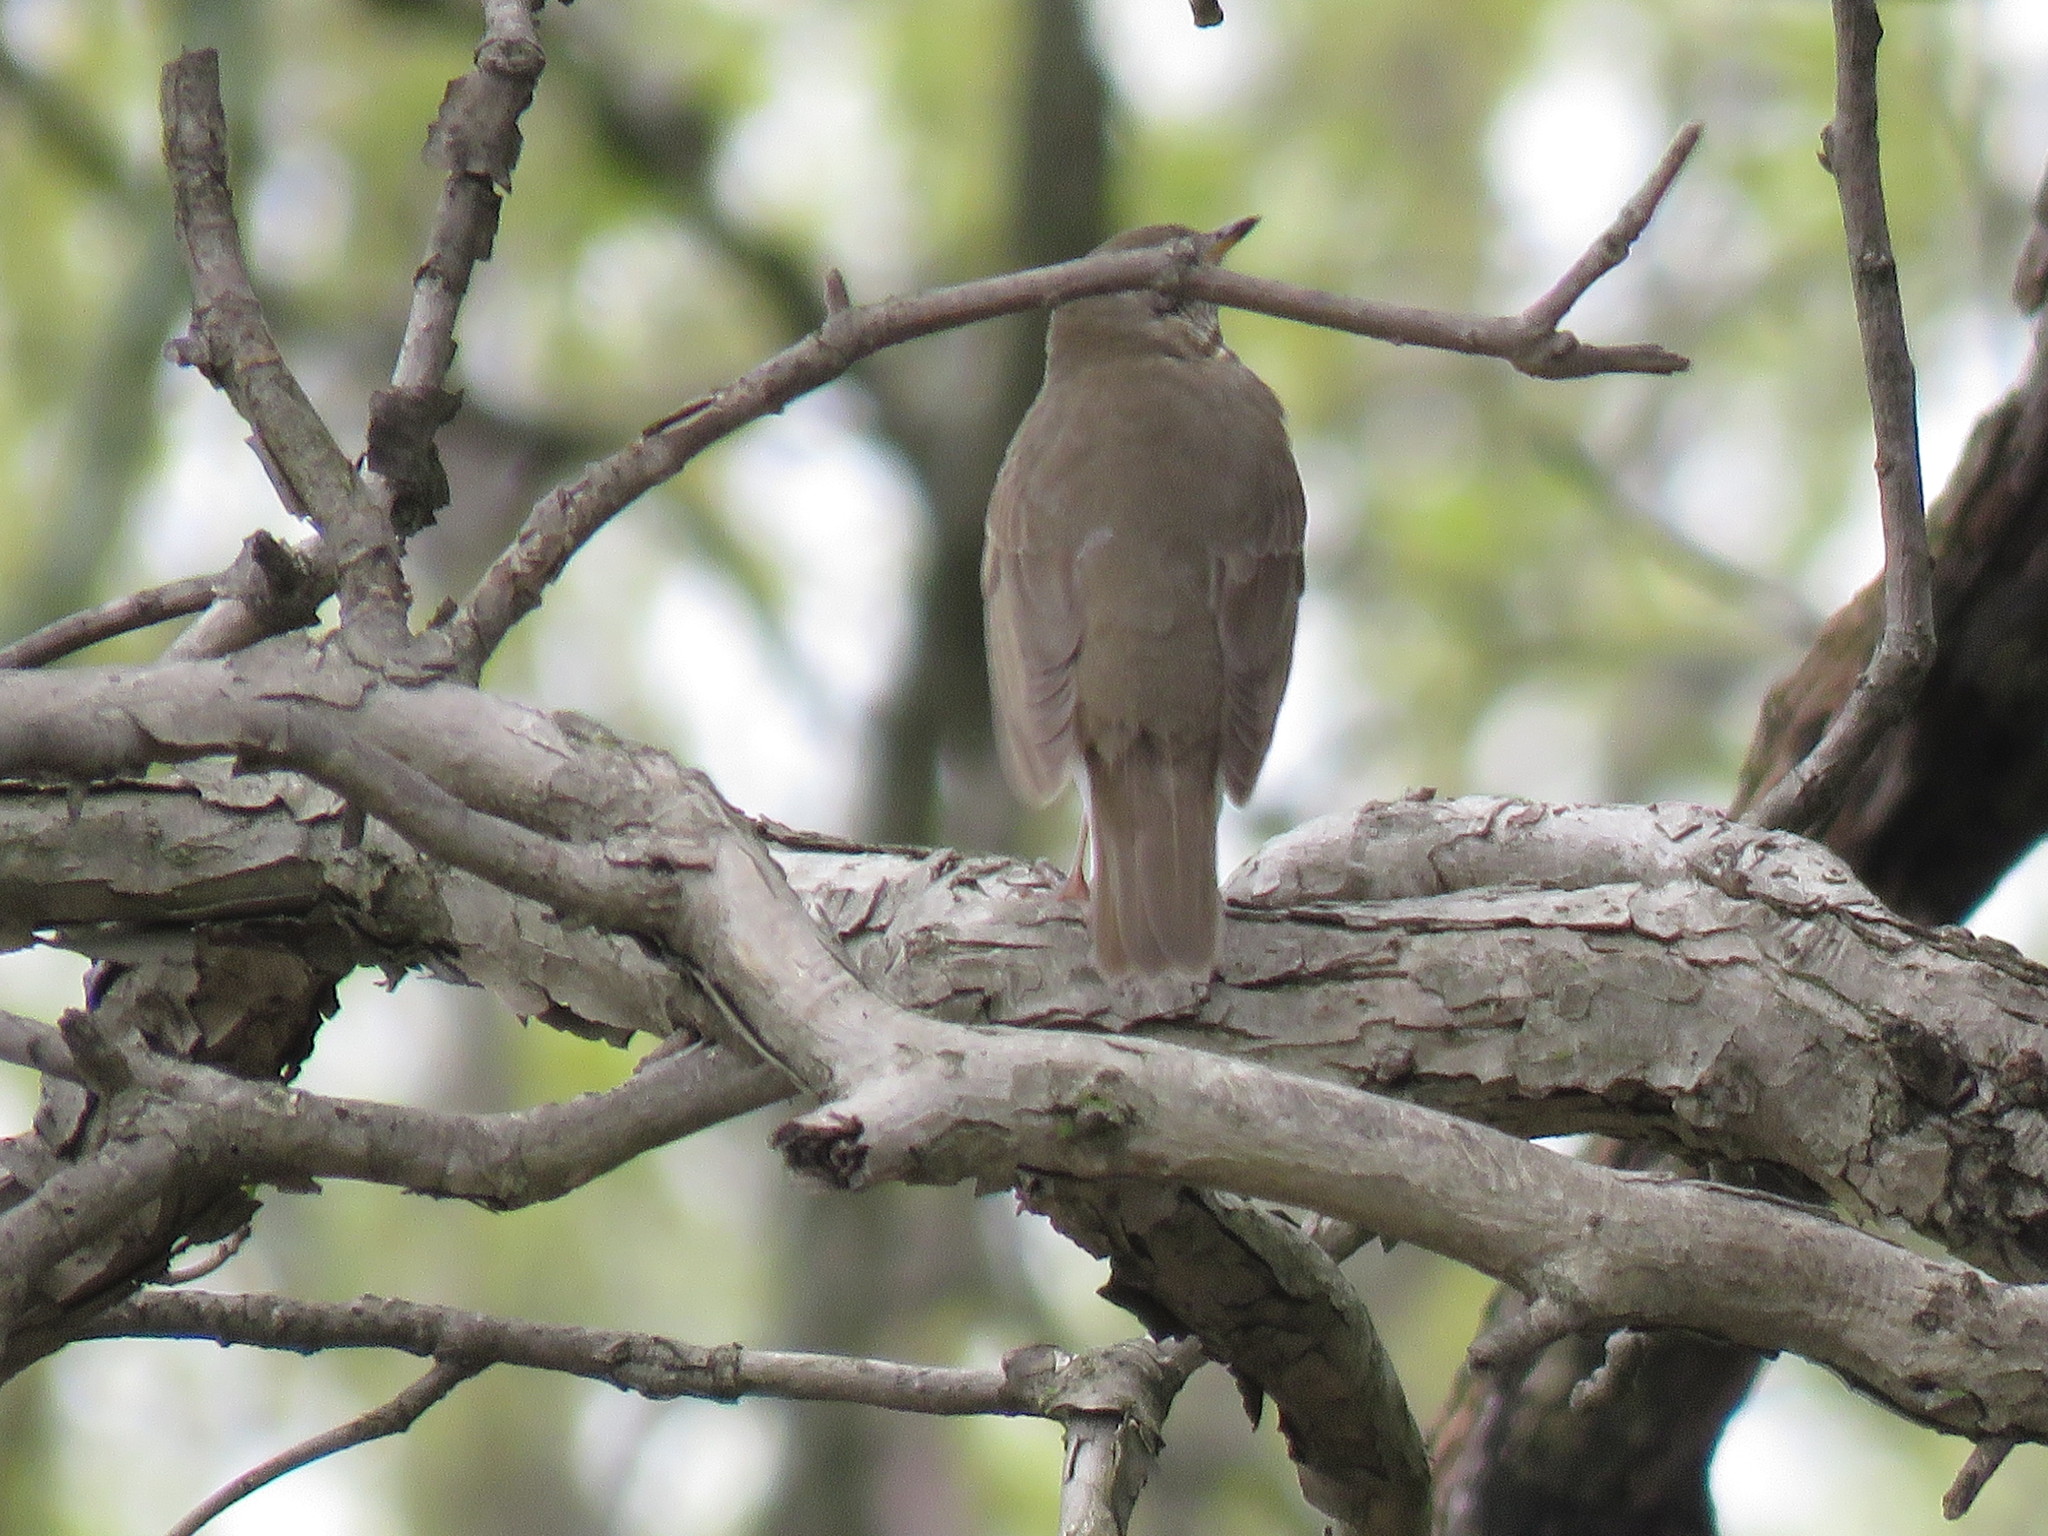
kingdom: Animalia
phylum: Chordata
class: Aves
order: Passeriformes
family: Turdidae
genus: Catharus
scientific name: Catharus minimus
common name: Grey-cheeked thrush
